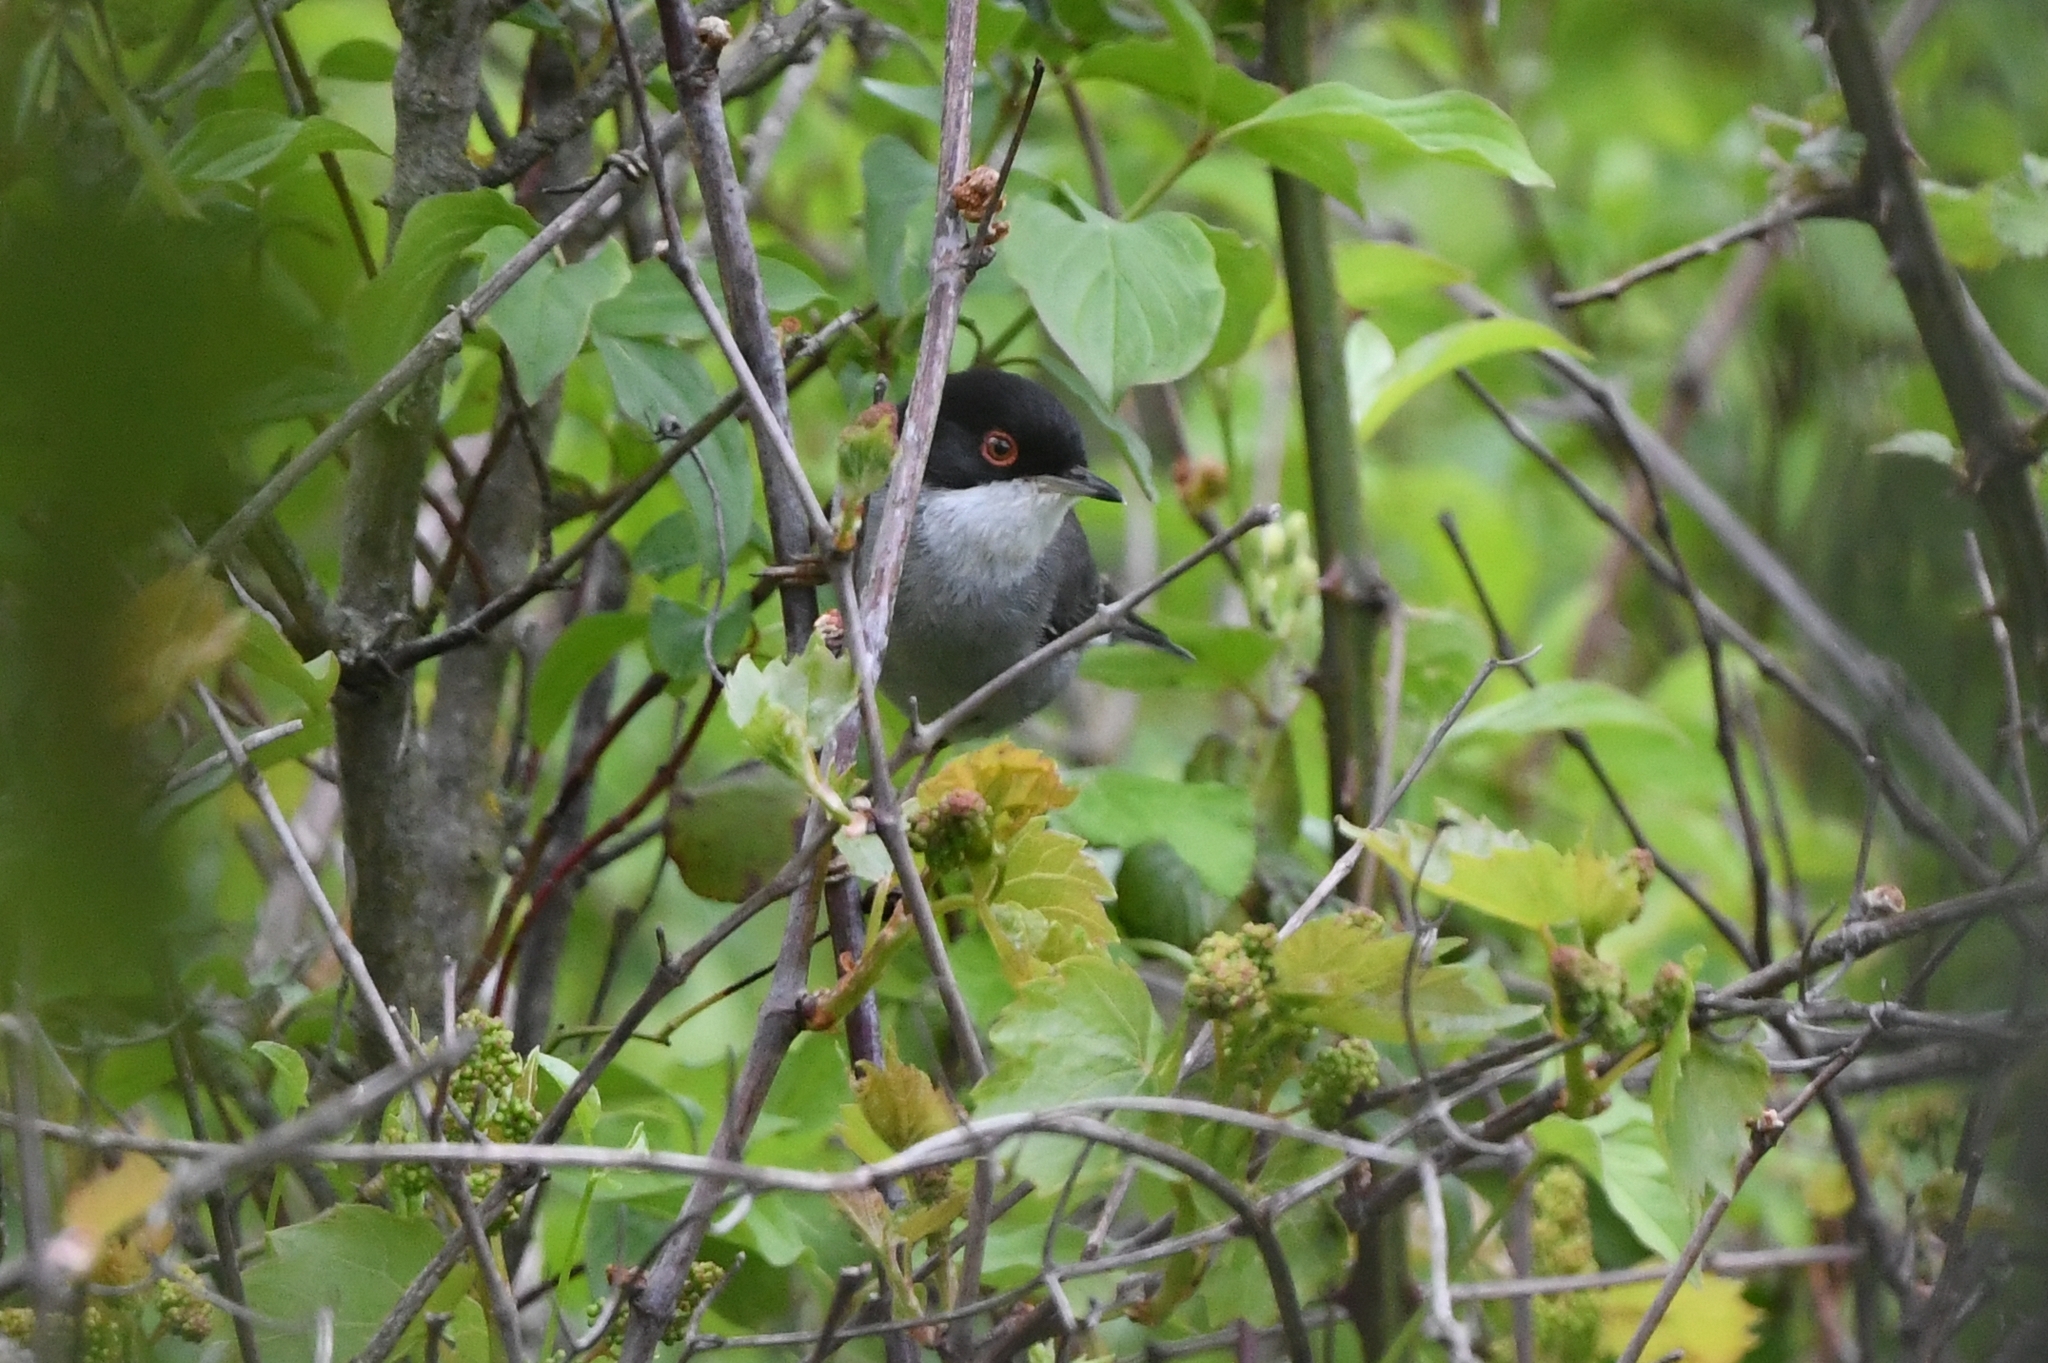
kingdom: Animalia
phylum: Chordata
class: Aves
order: Passeriformes
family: Sylviidae
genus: Curruca
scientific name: Curruca melanocephala
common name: Sardinian warbler
